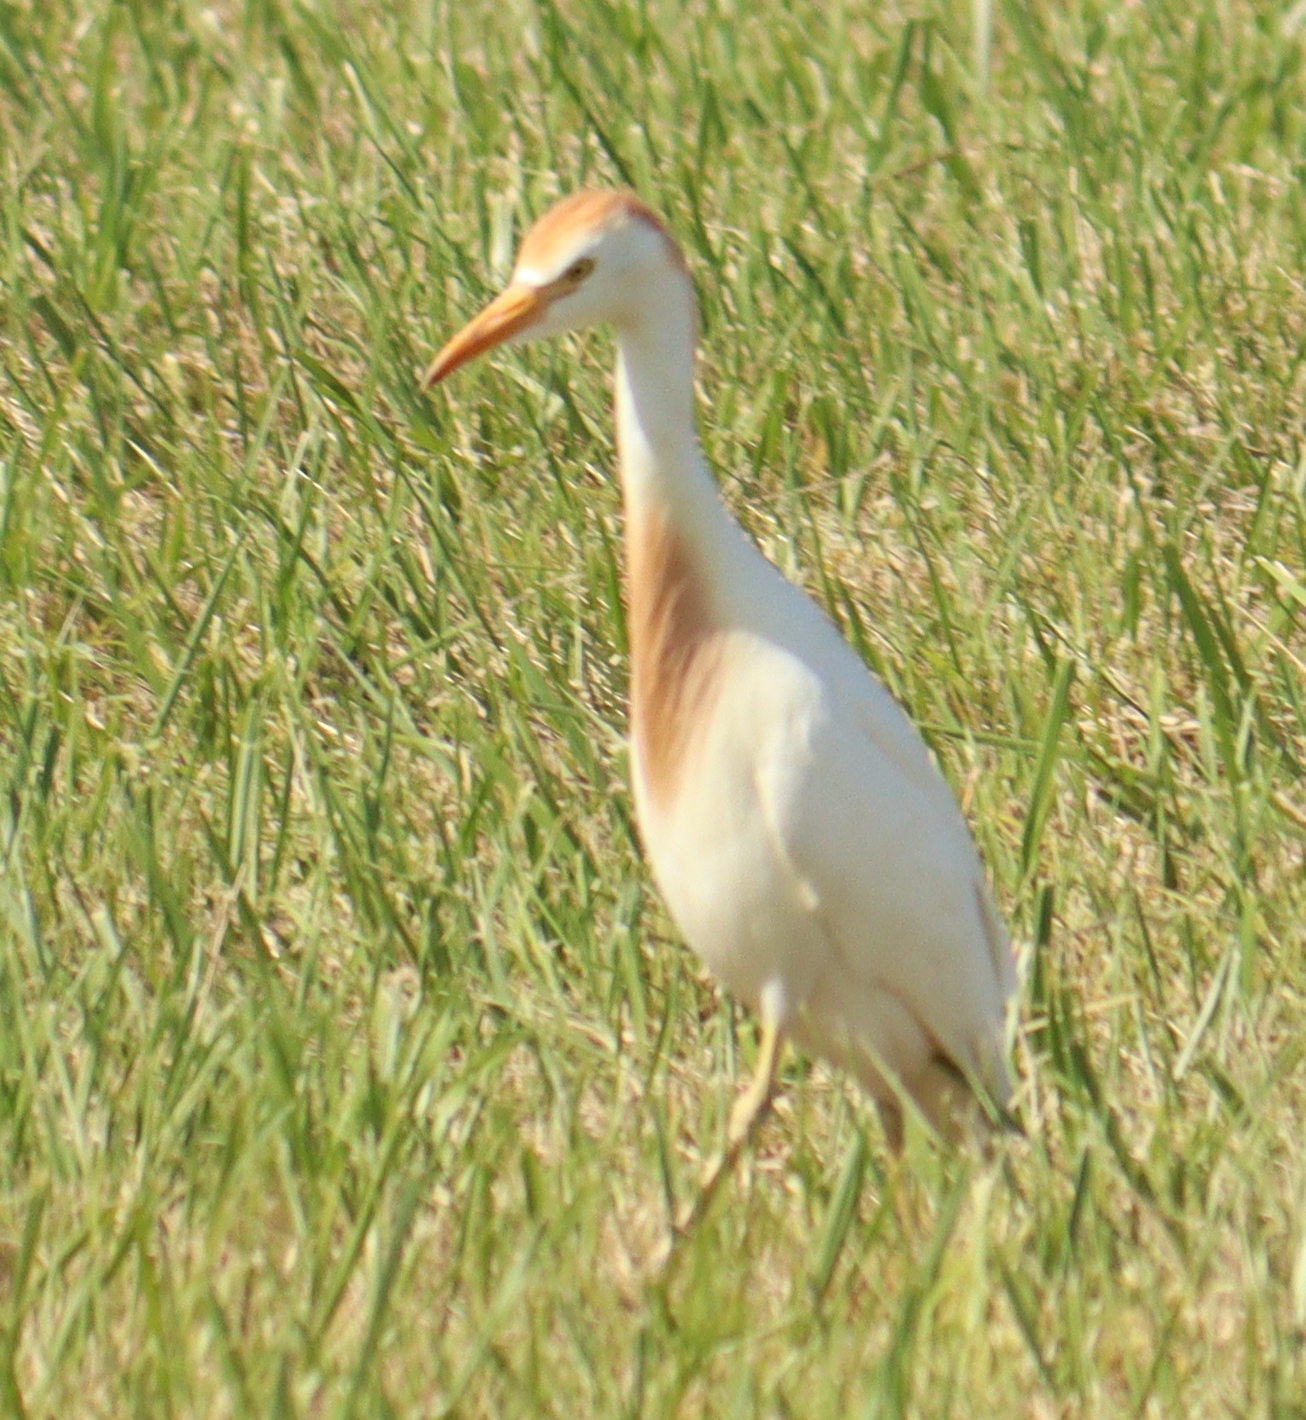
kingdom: Animalia
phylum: Chordata
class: Aves
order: Pelecaniformes
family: Ardeidae
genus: Bubulcus
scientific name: Bubulcus ibis
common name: Cattle egret
